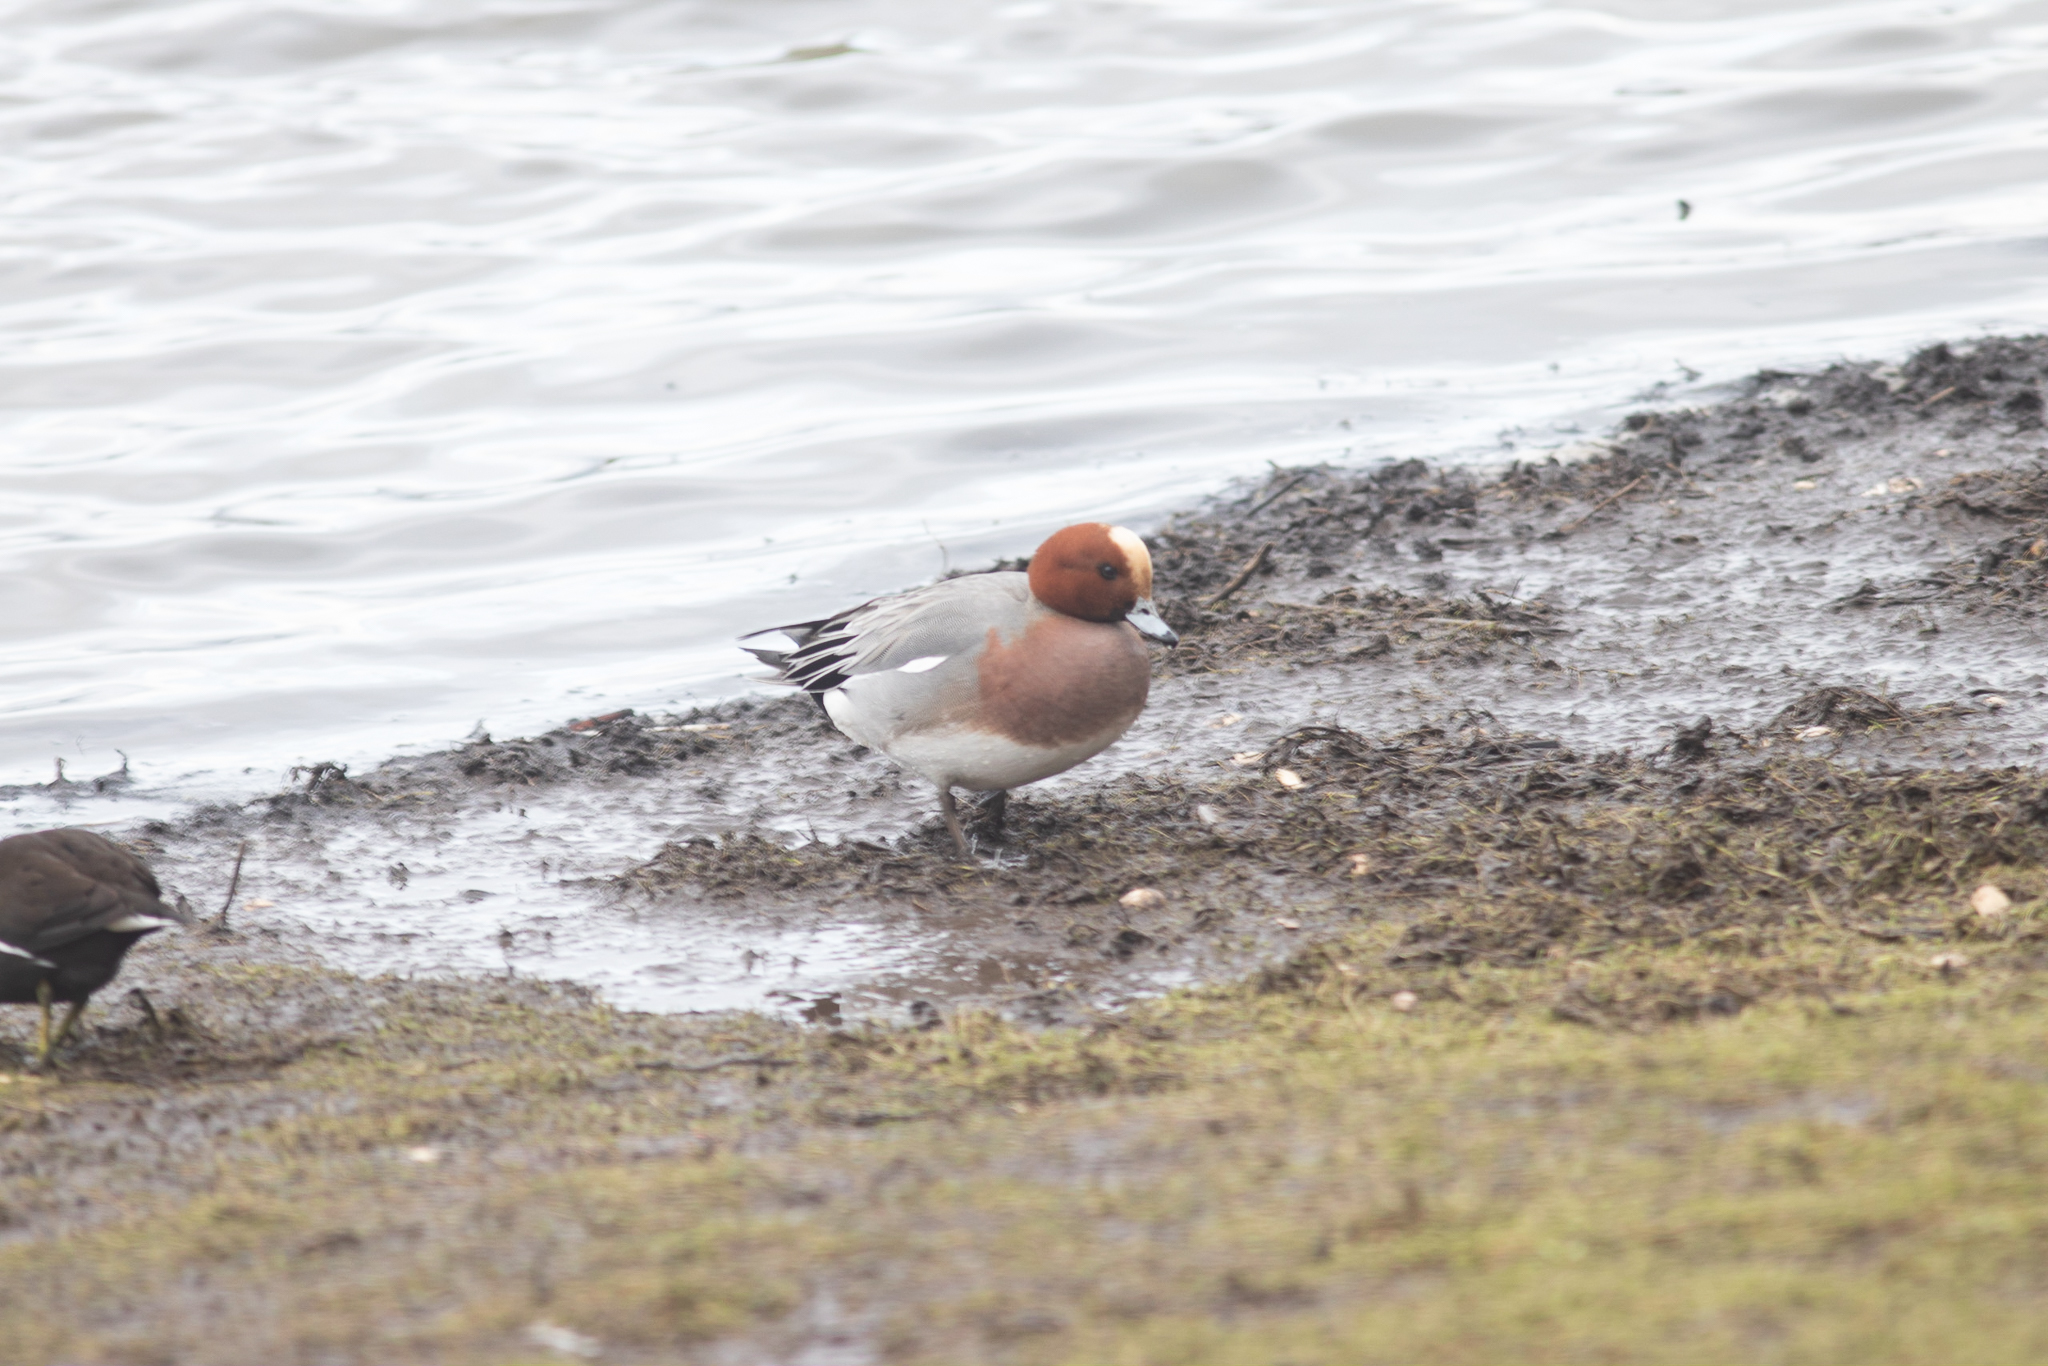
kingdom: Animalia
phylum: Chordata
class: Aves
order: Anseriformes
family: Anatidae
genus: Mareca
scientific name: Mareca penelope
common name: Eurasian wigeon
